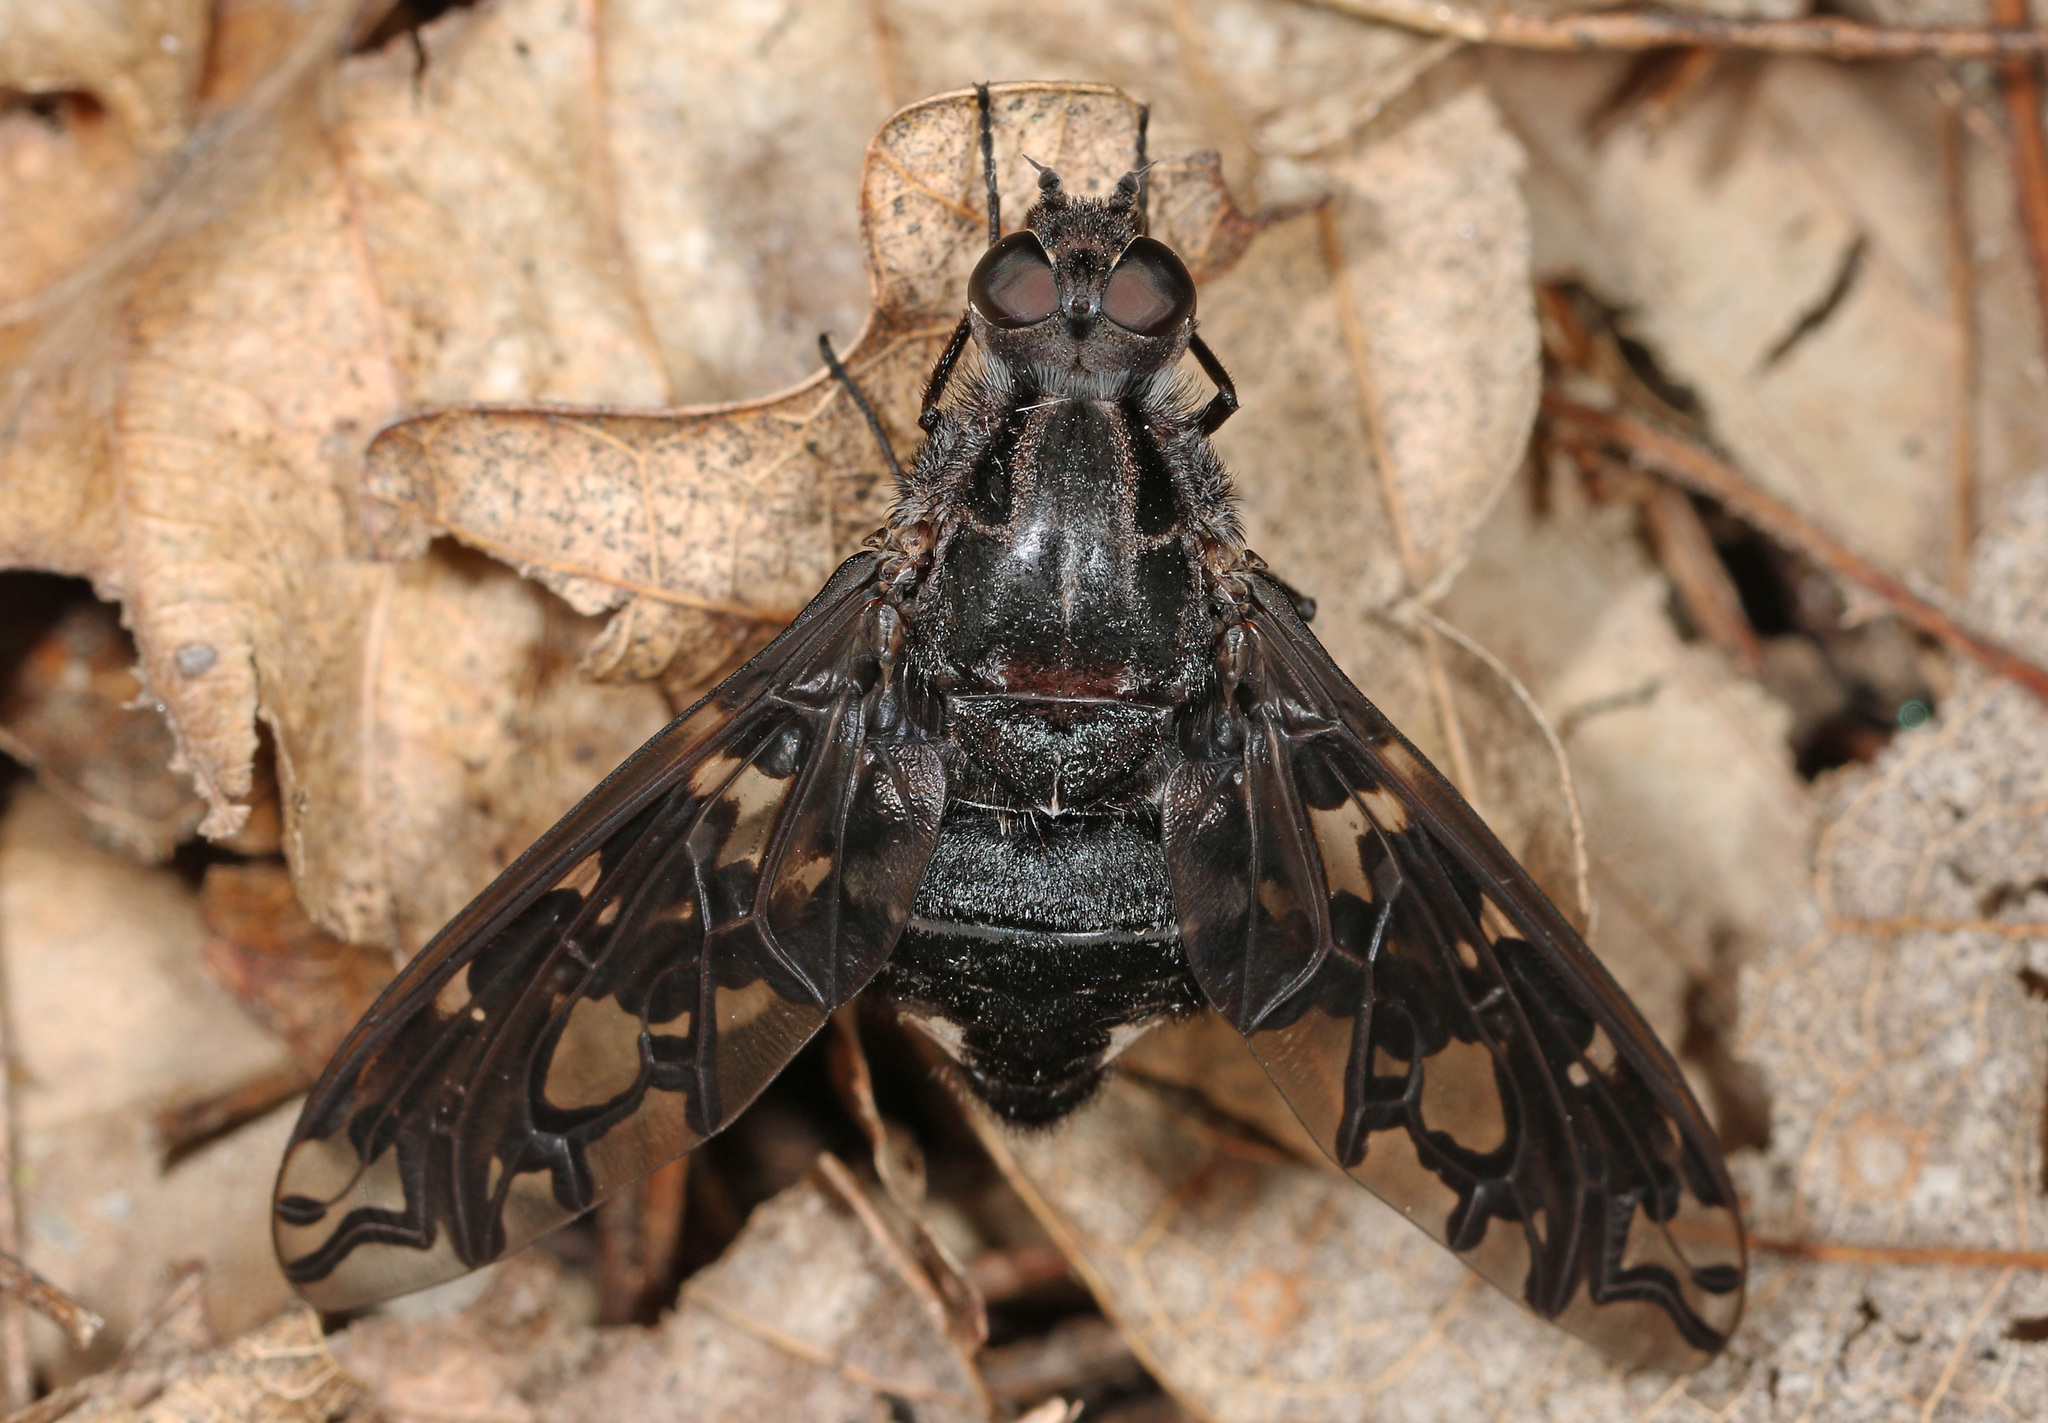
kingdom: Animalia
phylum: Arthropoda
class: Insecta
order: Diptera
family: Bombyliidae
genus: Xenox
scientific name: Xenox tigrinus
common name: Tiger bee fly
